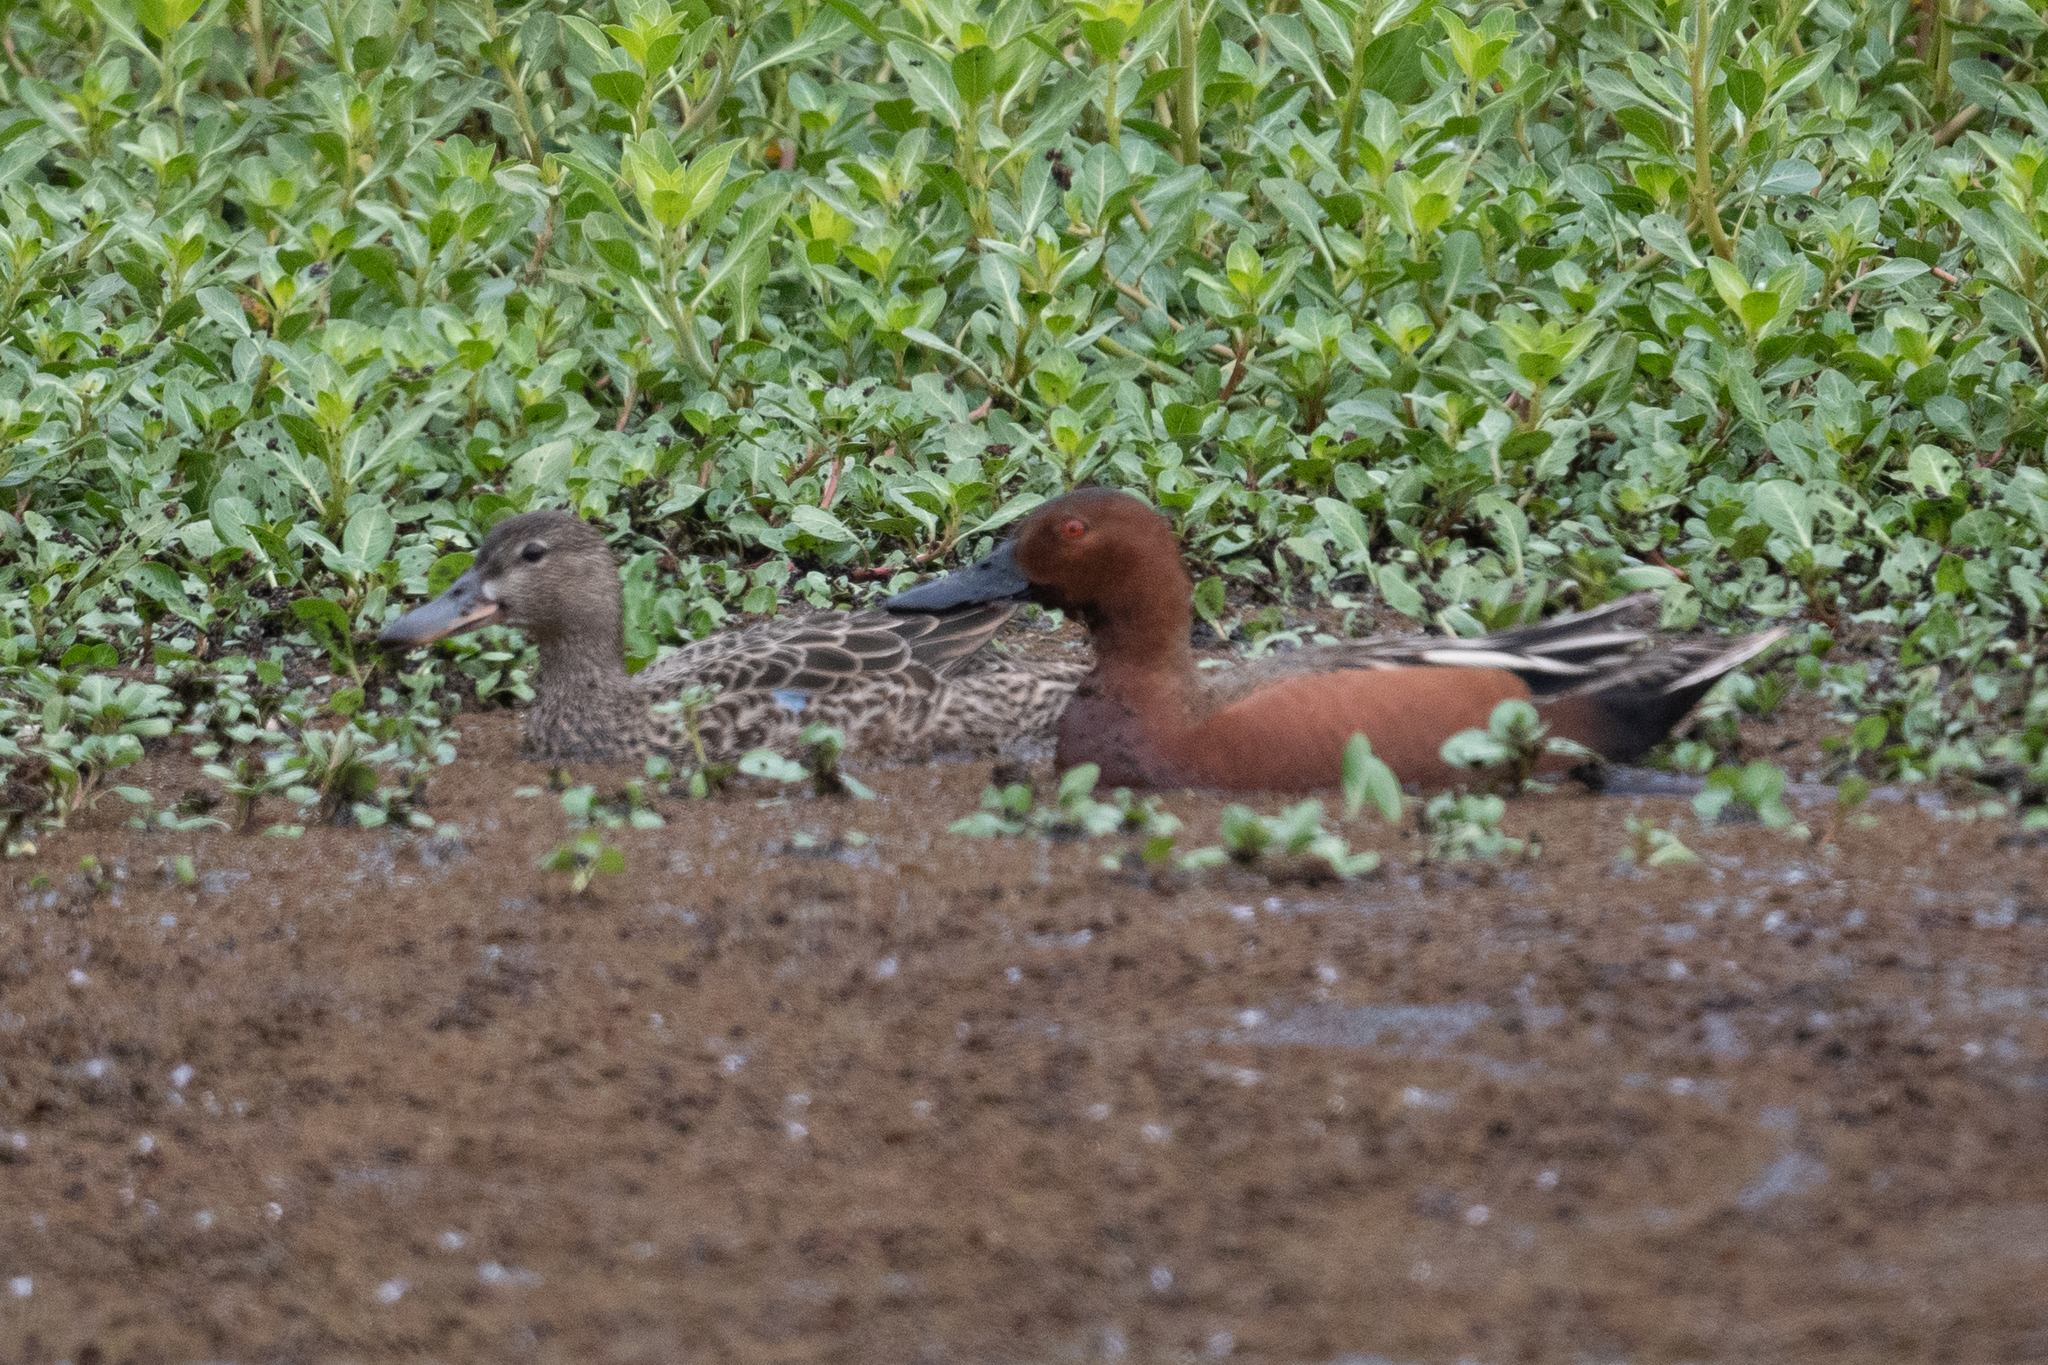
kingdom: Animalia
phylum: Chordata
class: Aves
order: Anseriformes
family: Anatidae
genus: Spatula
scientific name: Spatula cyanoptera
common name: Cinnamon teal
